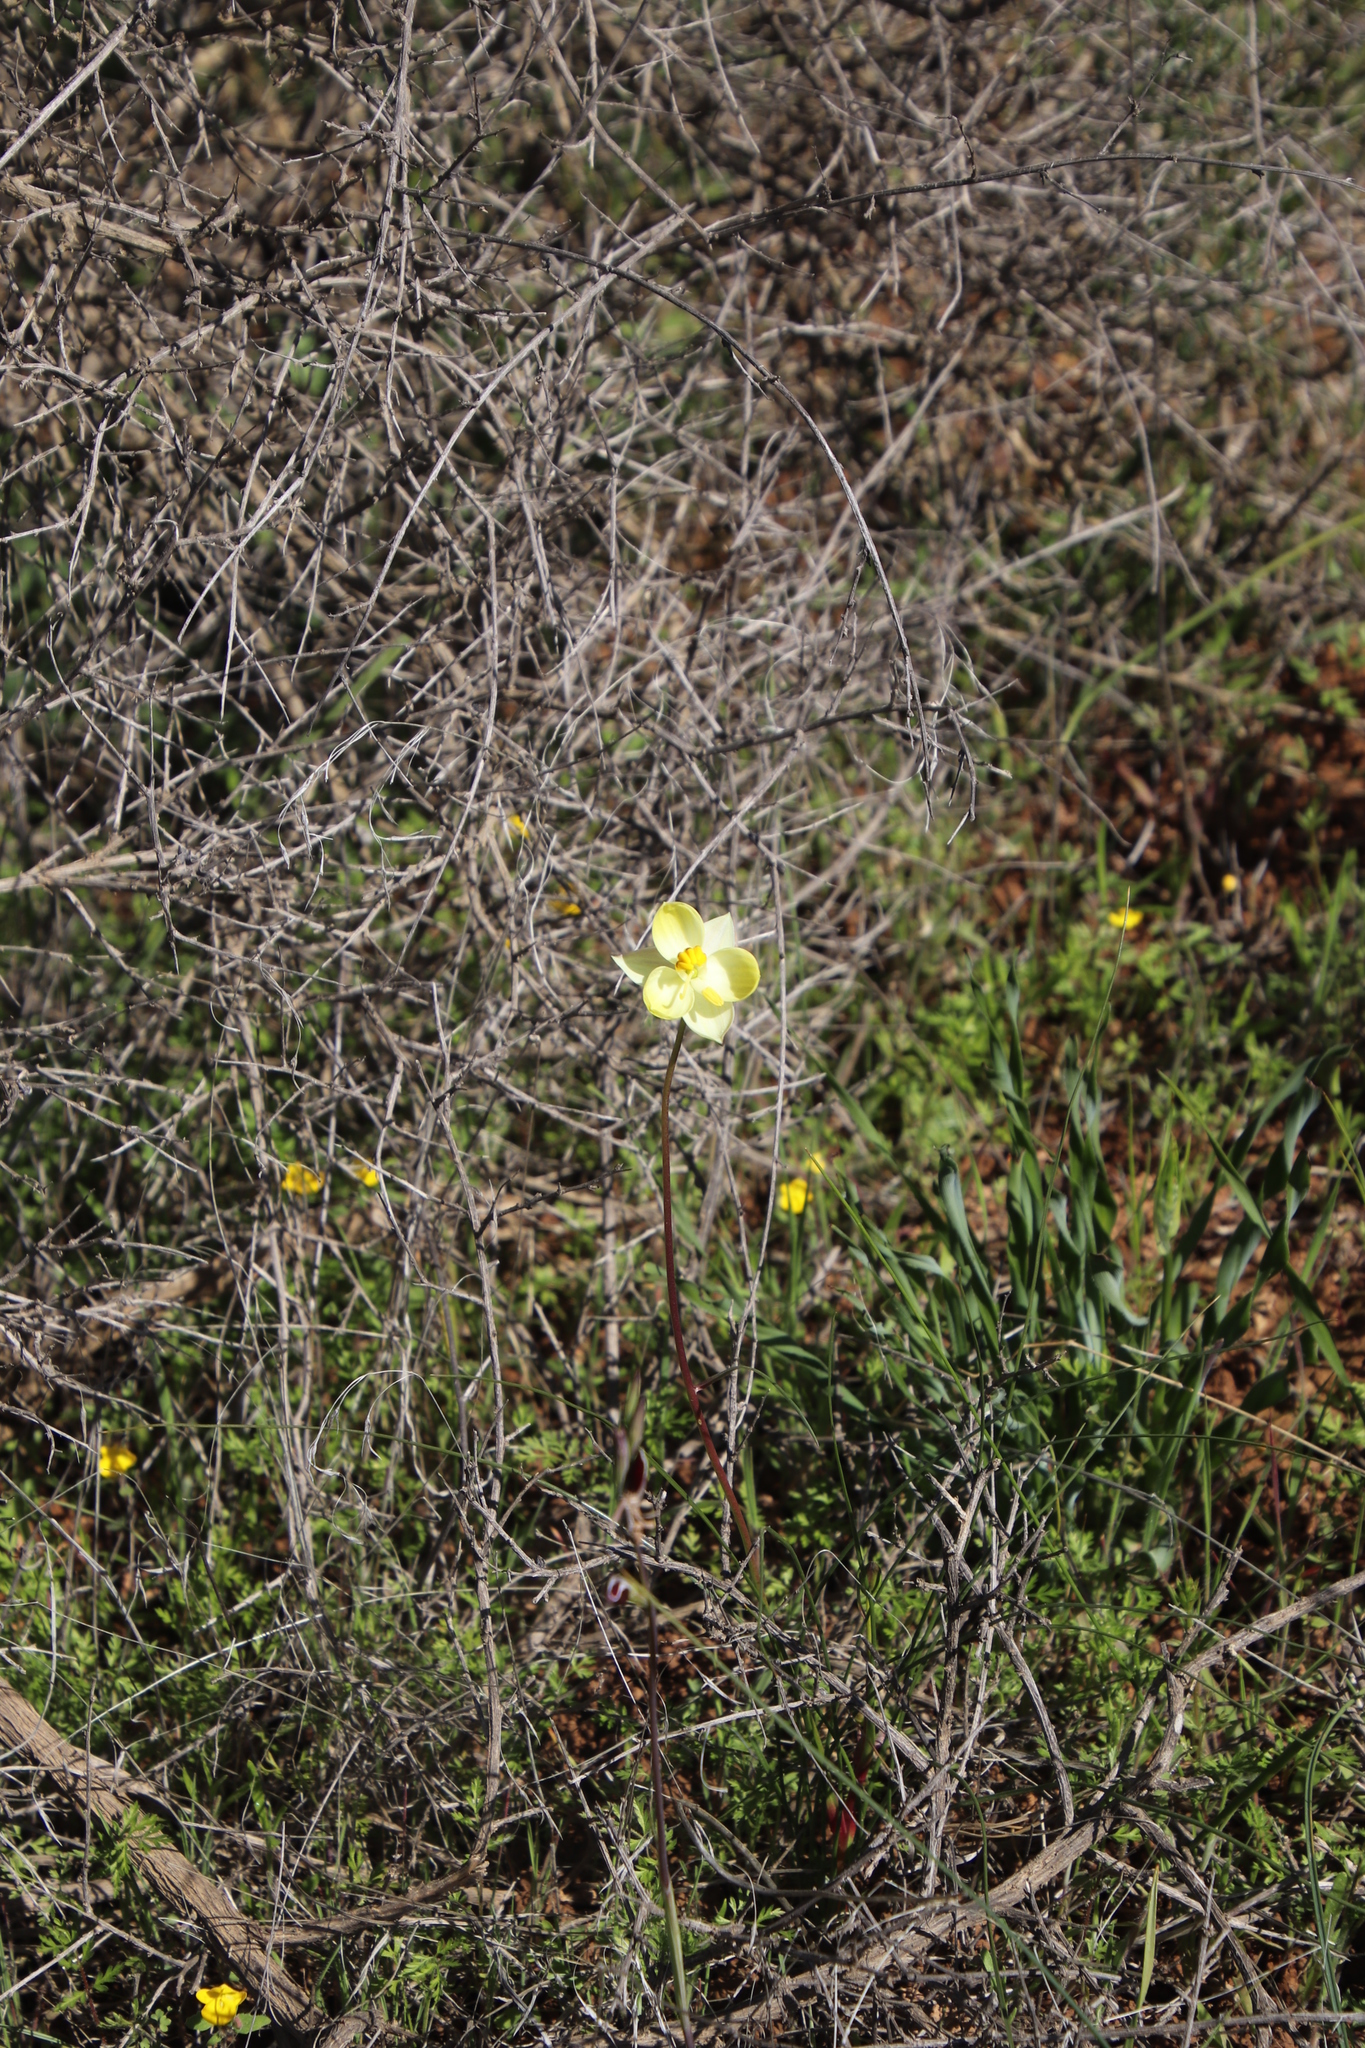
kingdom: Plantae
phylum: Tracheophyta
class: Liliopsida
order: Asparagales
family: Tecophilaeaceae
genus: Cyanella
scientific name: Cyanella alba
